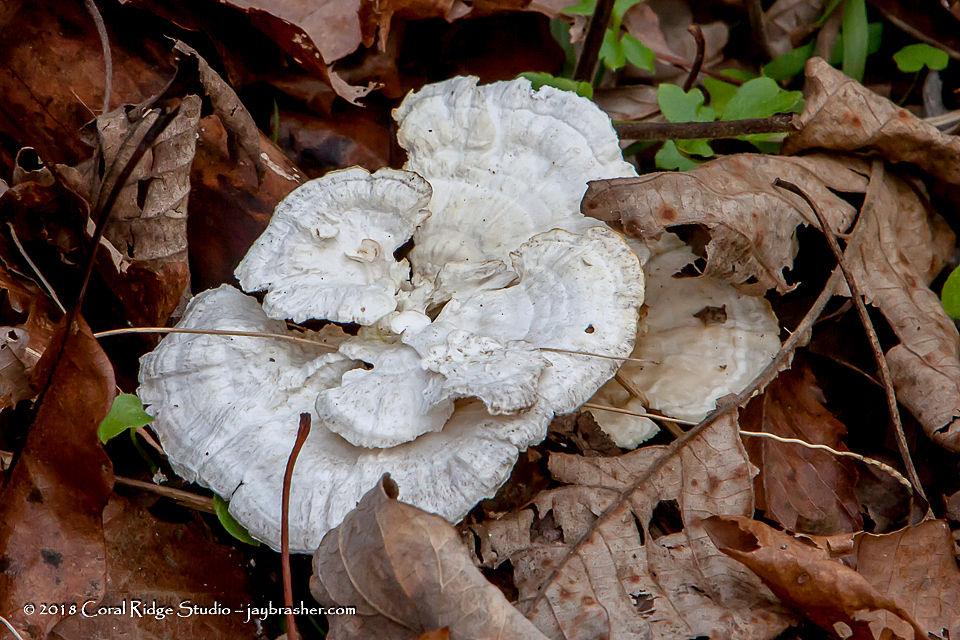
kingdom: Fungi
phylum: Basidiomycota
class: Agaricomycetes
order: Polyporales
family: Polyporaceae
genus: Poronidulus
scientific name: Poronidulus conchifer
